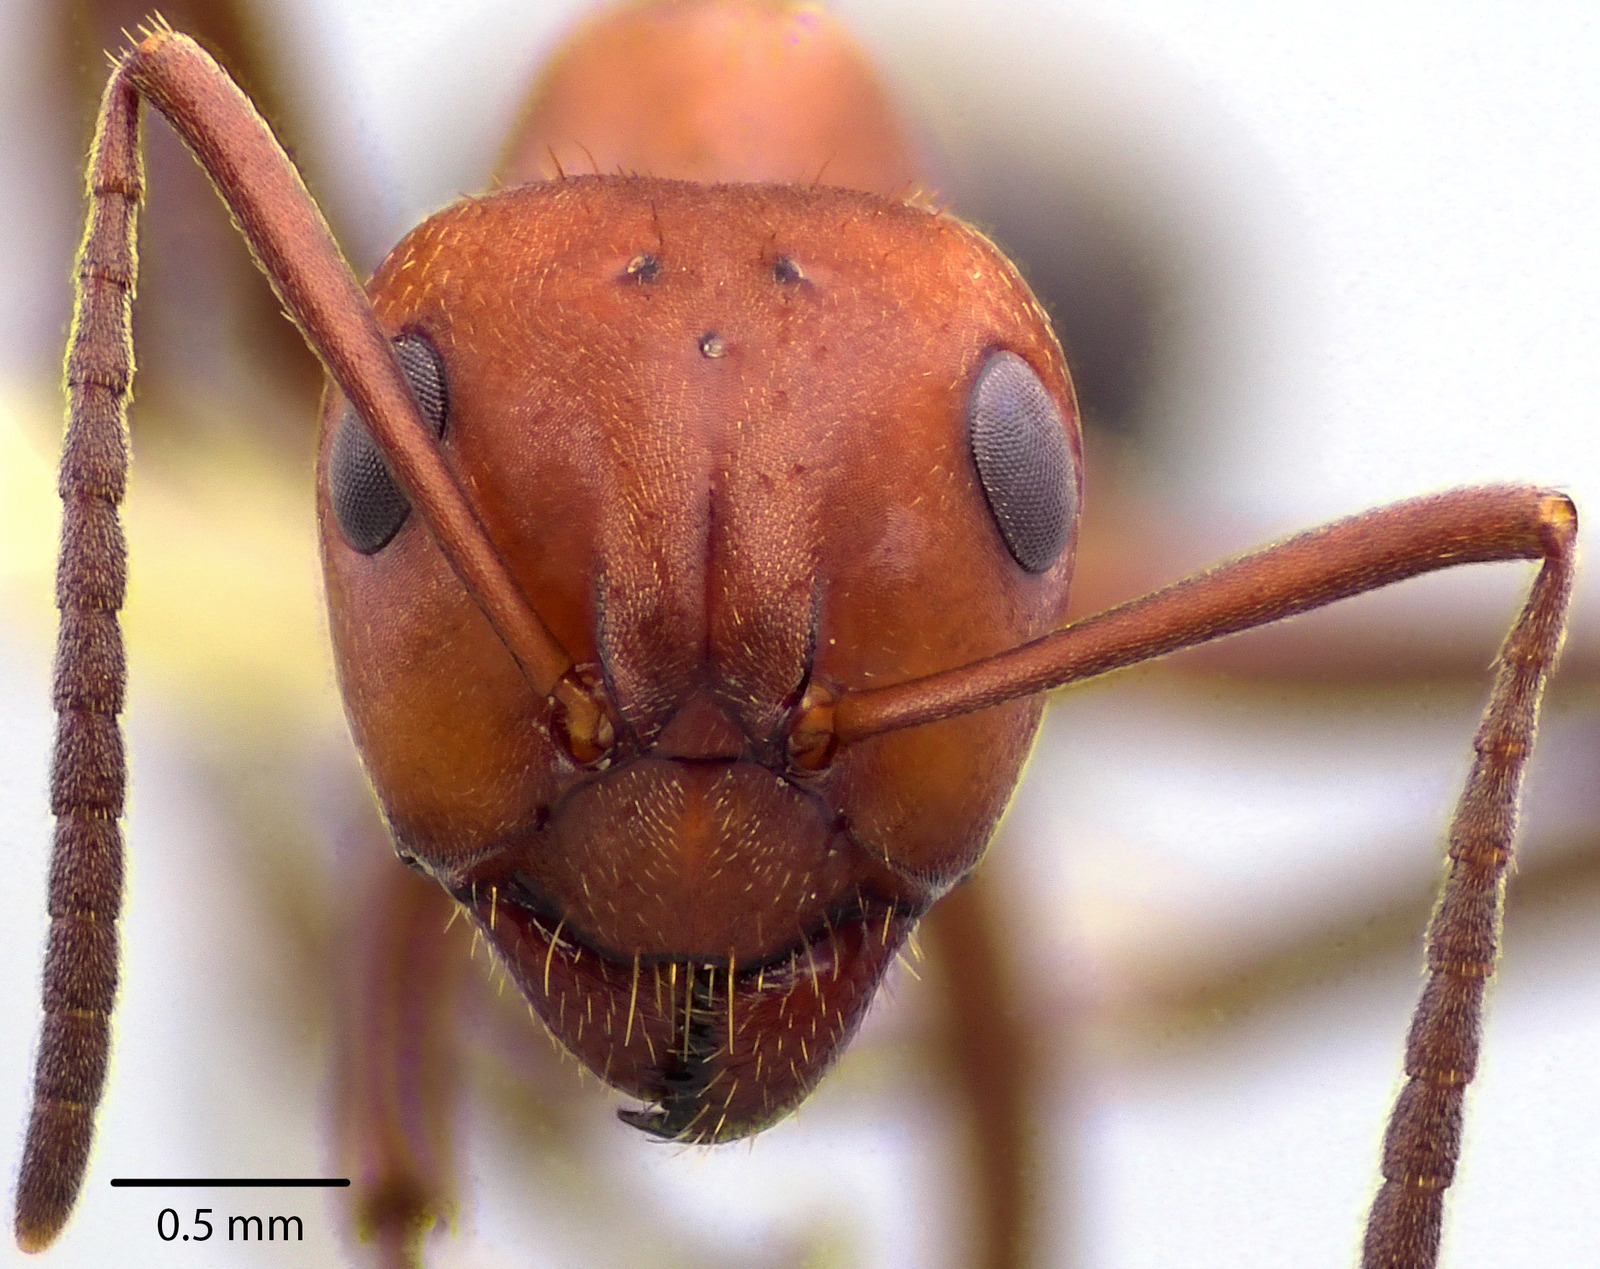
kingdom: Animalia
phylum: Arthropoda
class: Insecta
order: Hymenoptera
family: Formicidae
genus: Formica
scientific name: Formica pergandei
